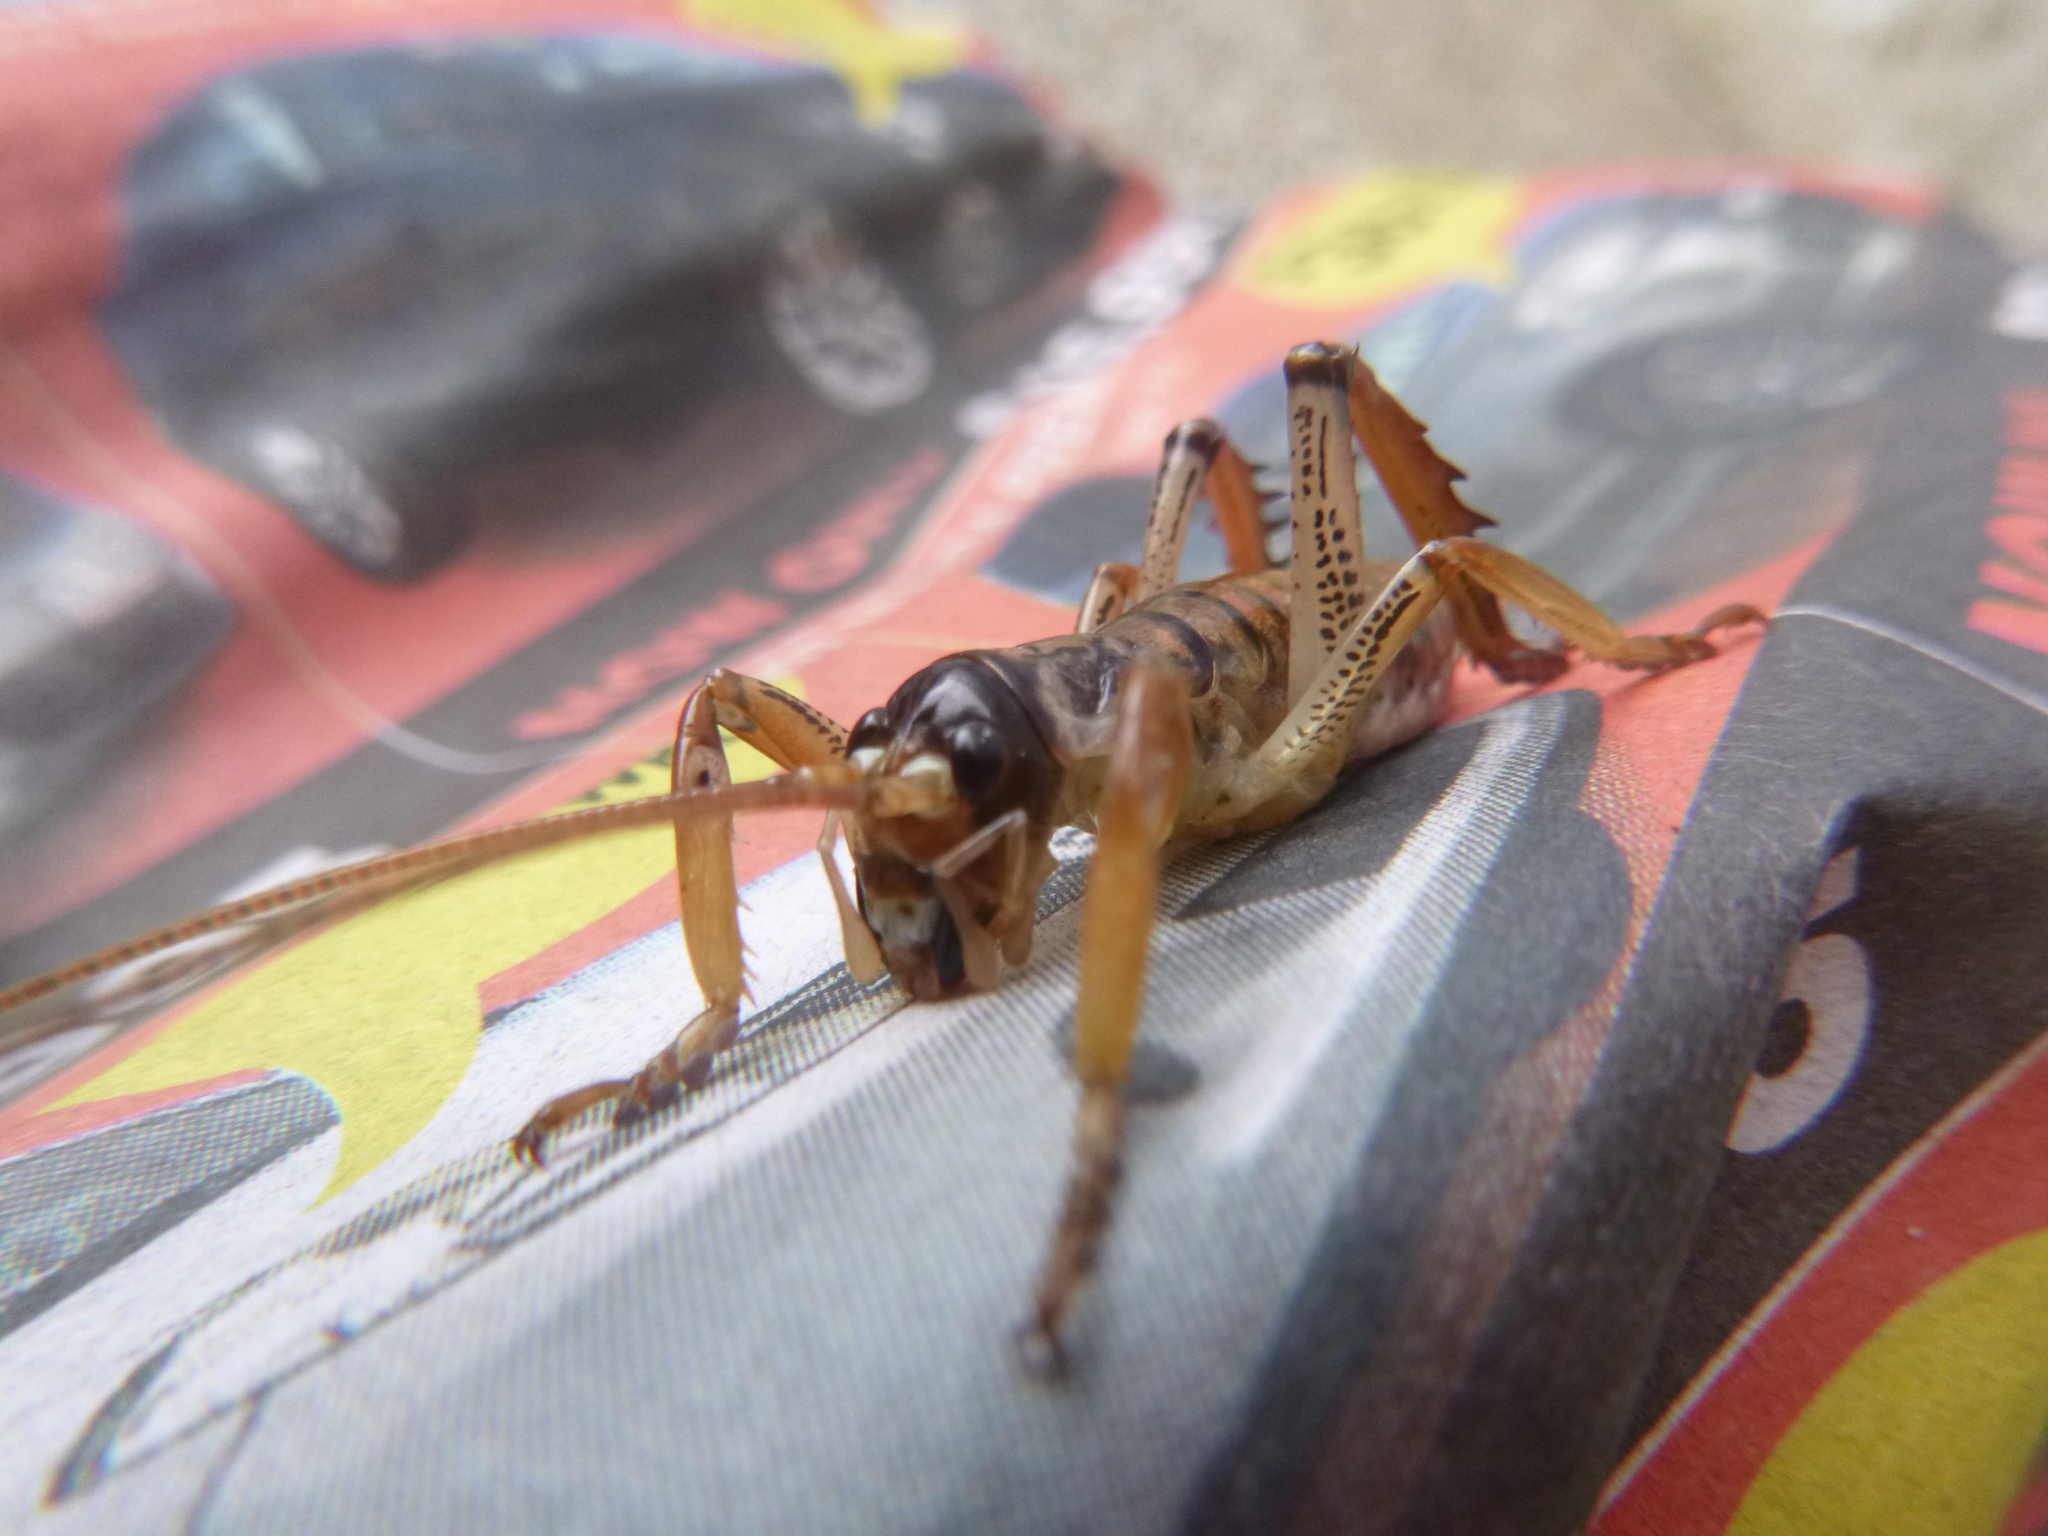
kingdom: Animalia
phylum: Arthropoda
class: Insecta
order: Orthoptera
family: Anostostomatidae
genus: Hemideina
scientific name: Hemideina thoracica
